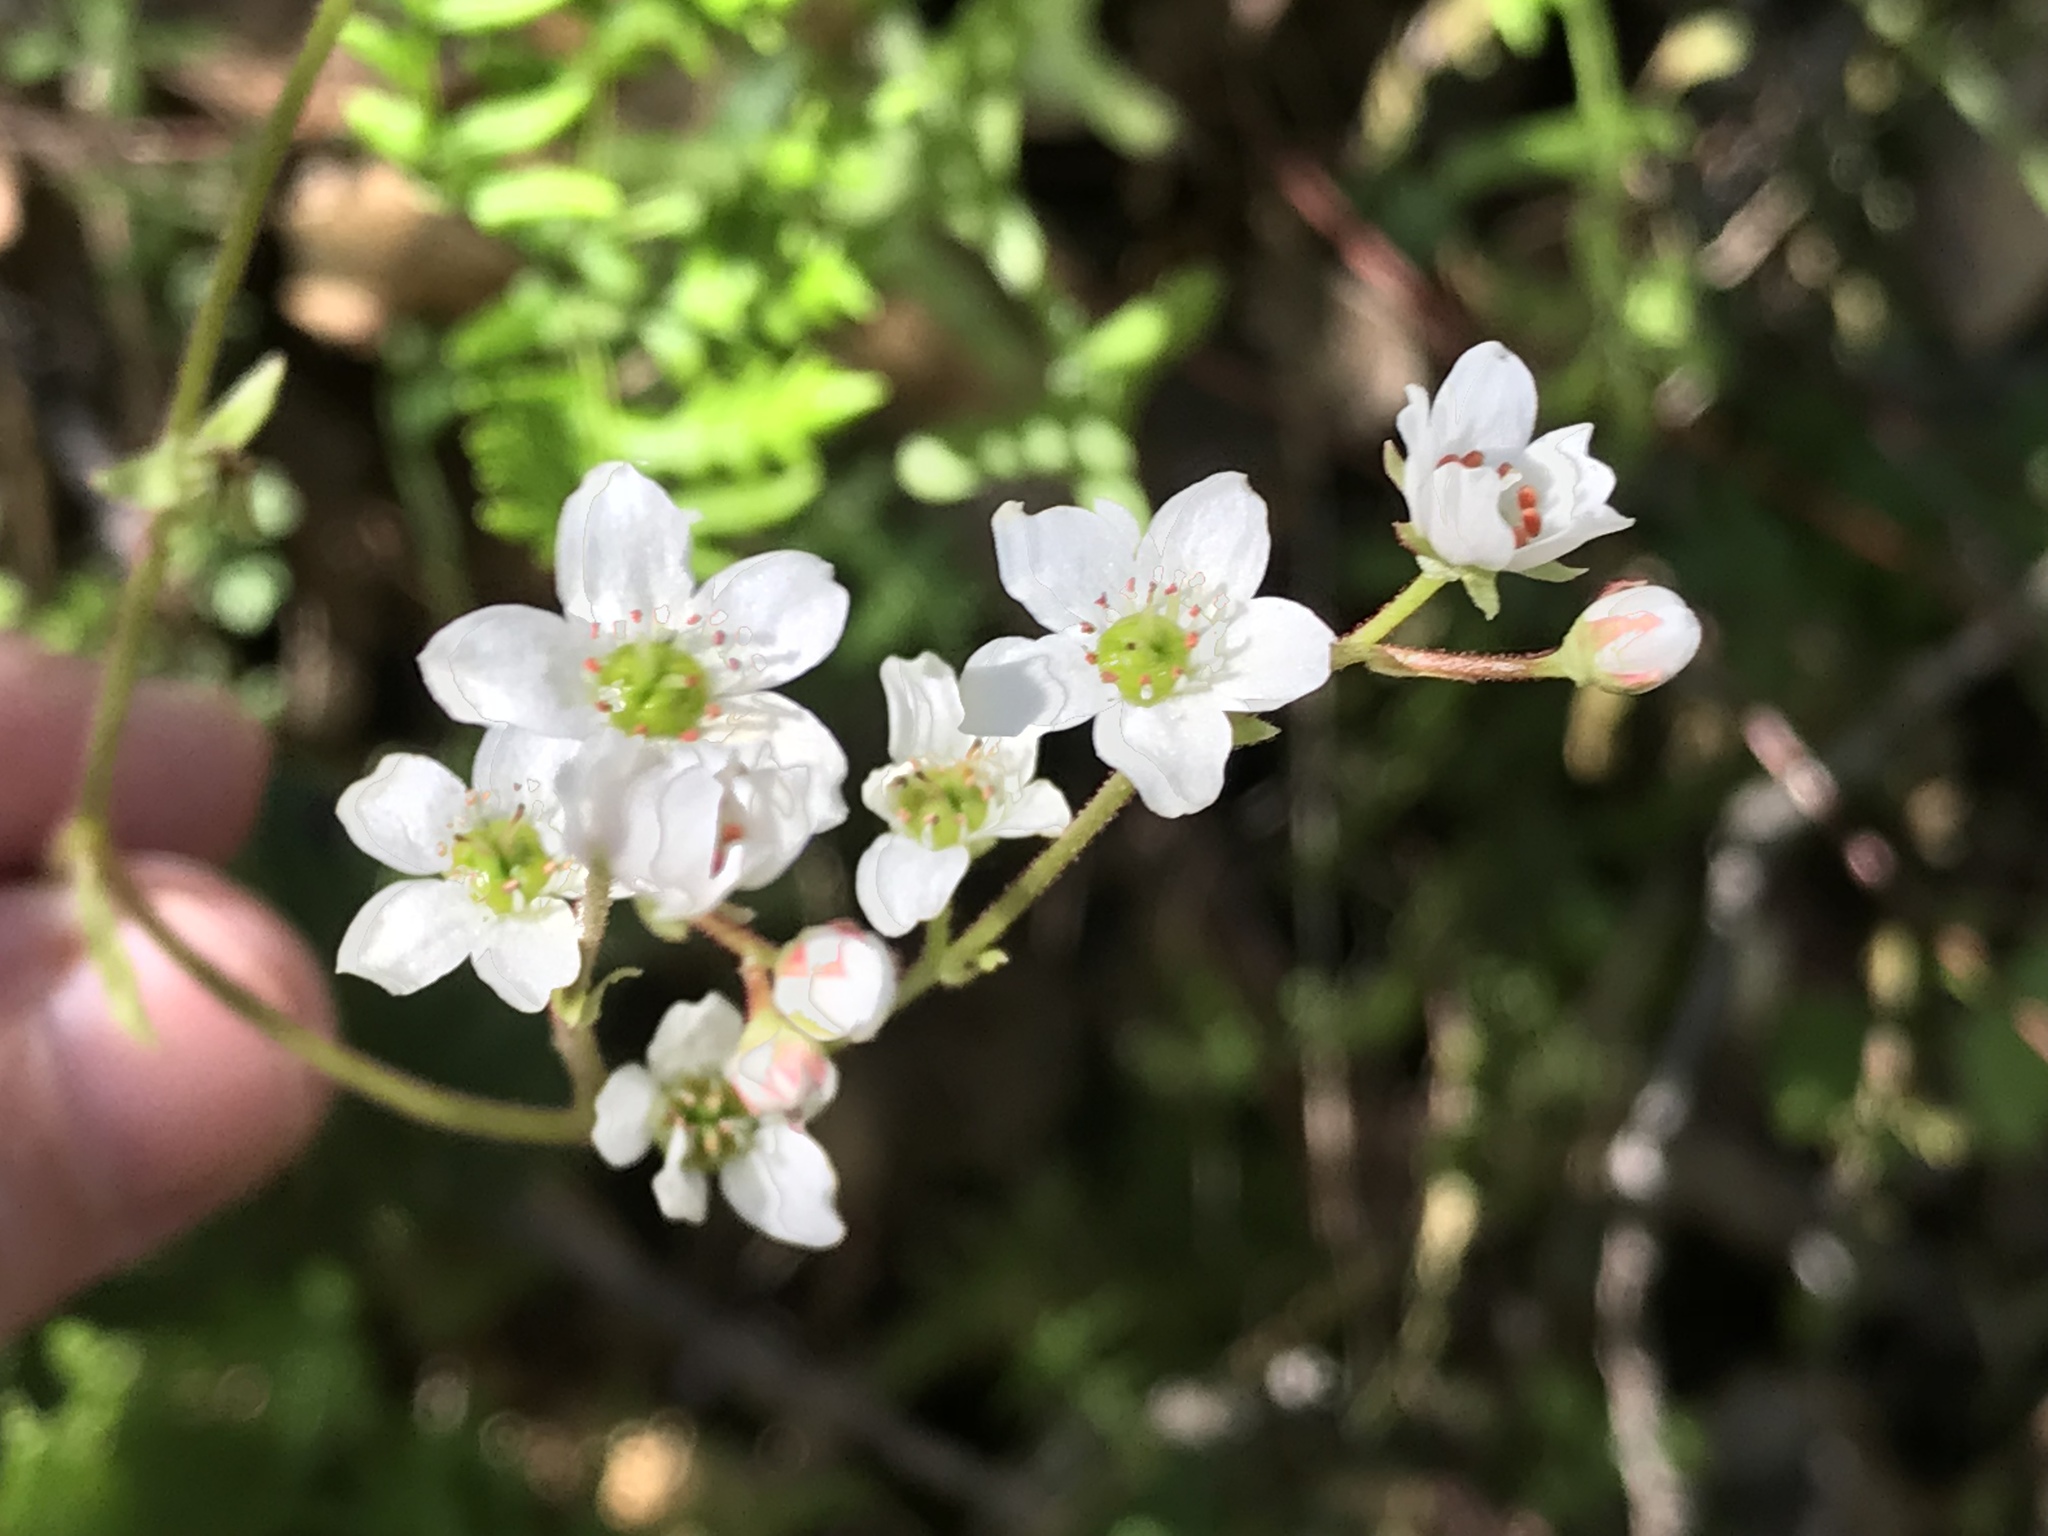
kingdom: Plantae
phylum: Tracheophyta
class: Magnoliopsida
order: Saxifragales
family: Saxifragaceae
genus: Micranthes
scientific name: Micranthes californica
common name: California saxifrage
